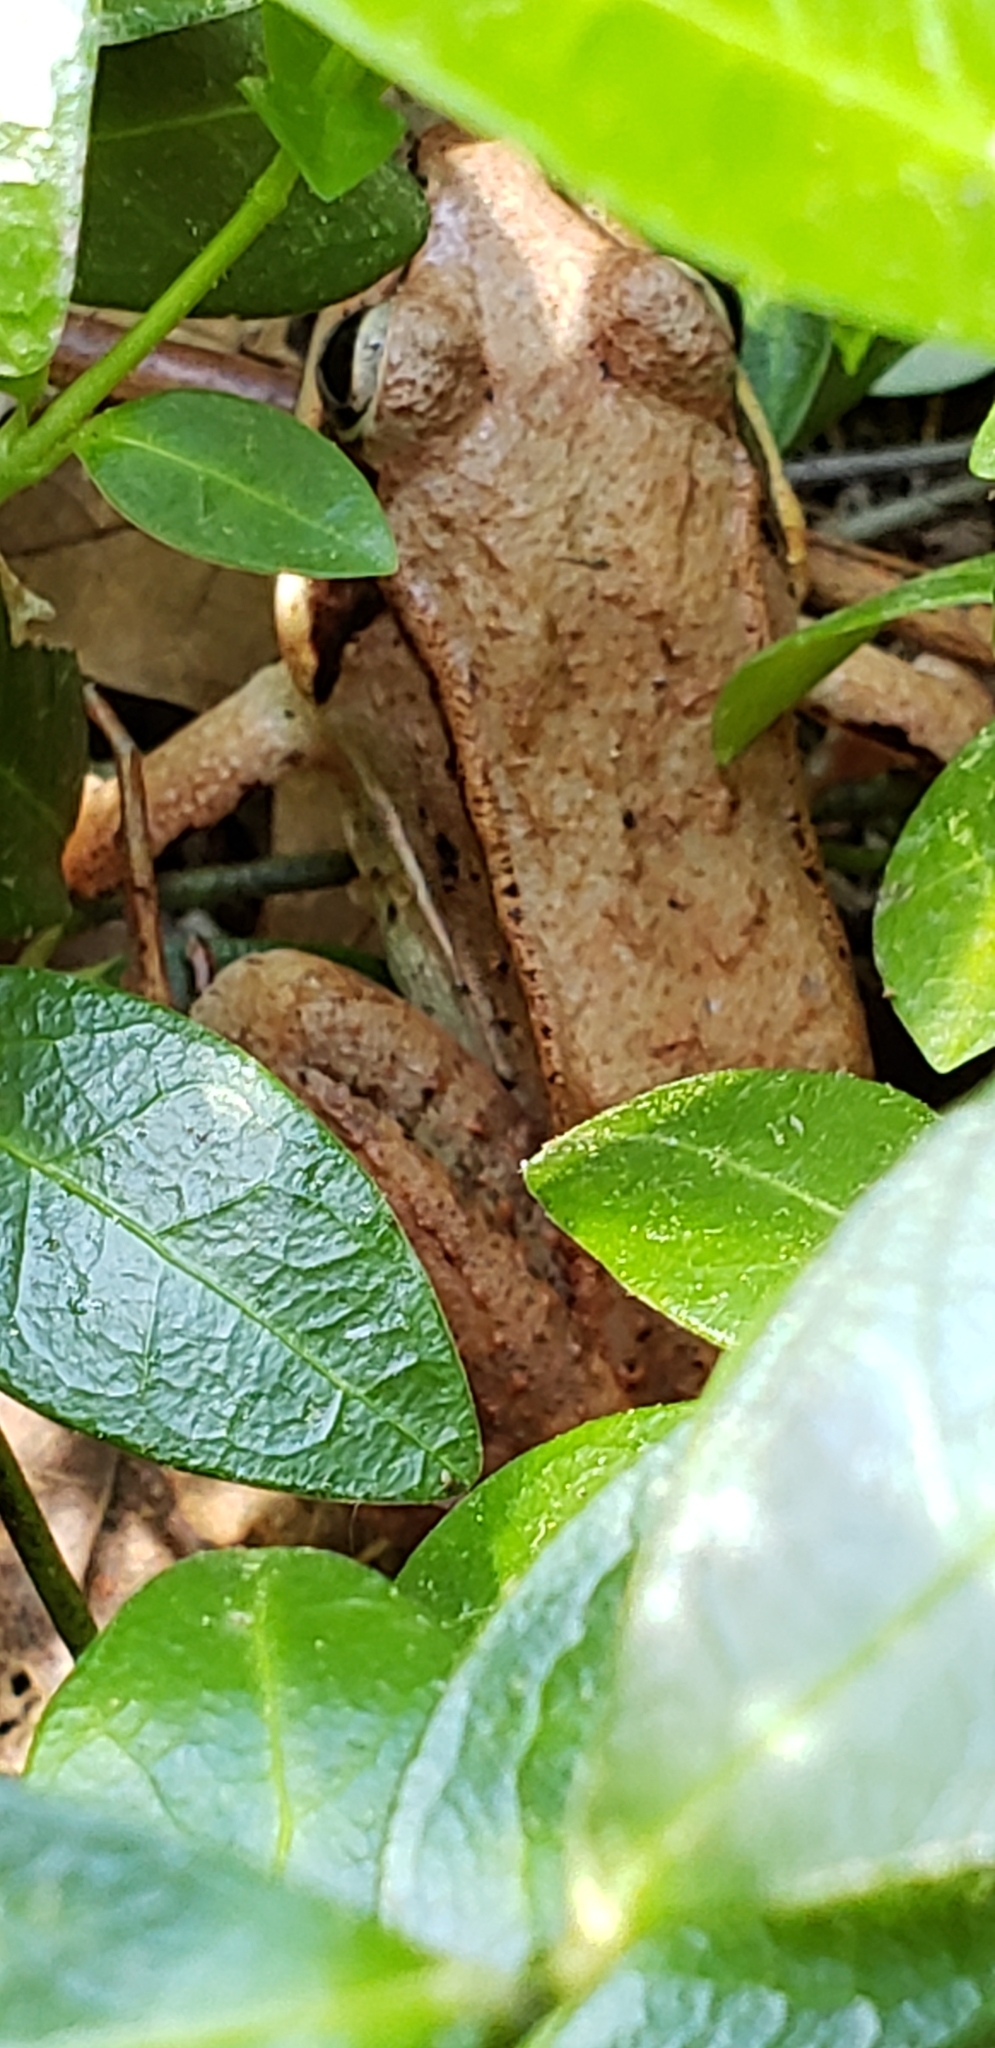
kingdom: Animalia
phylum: Chordata
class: Amphibia
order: Anura
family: Ranidae
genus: Lithobates
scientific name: Lithobates sylvaticus
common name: Wood frog
